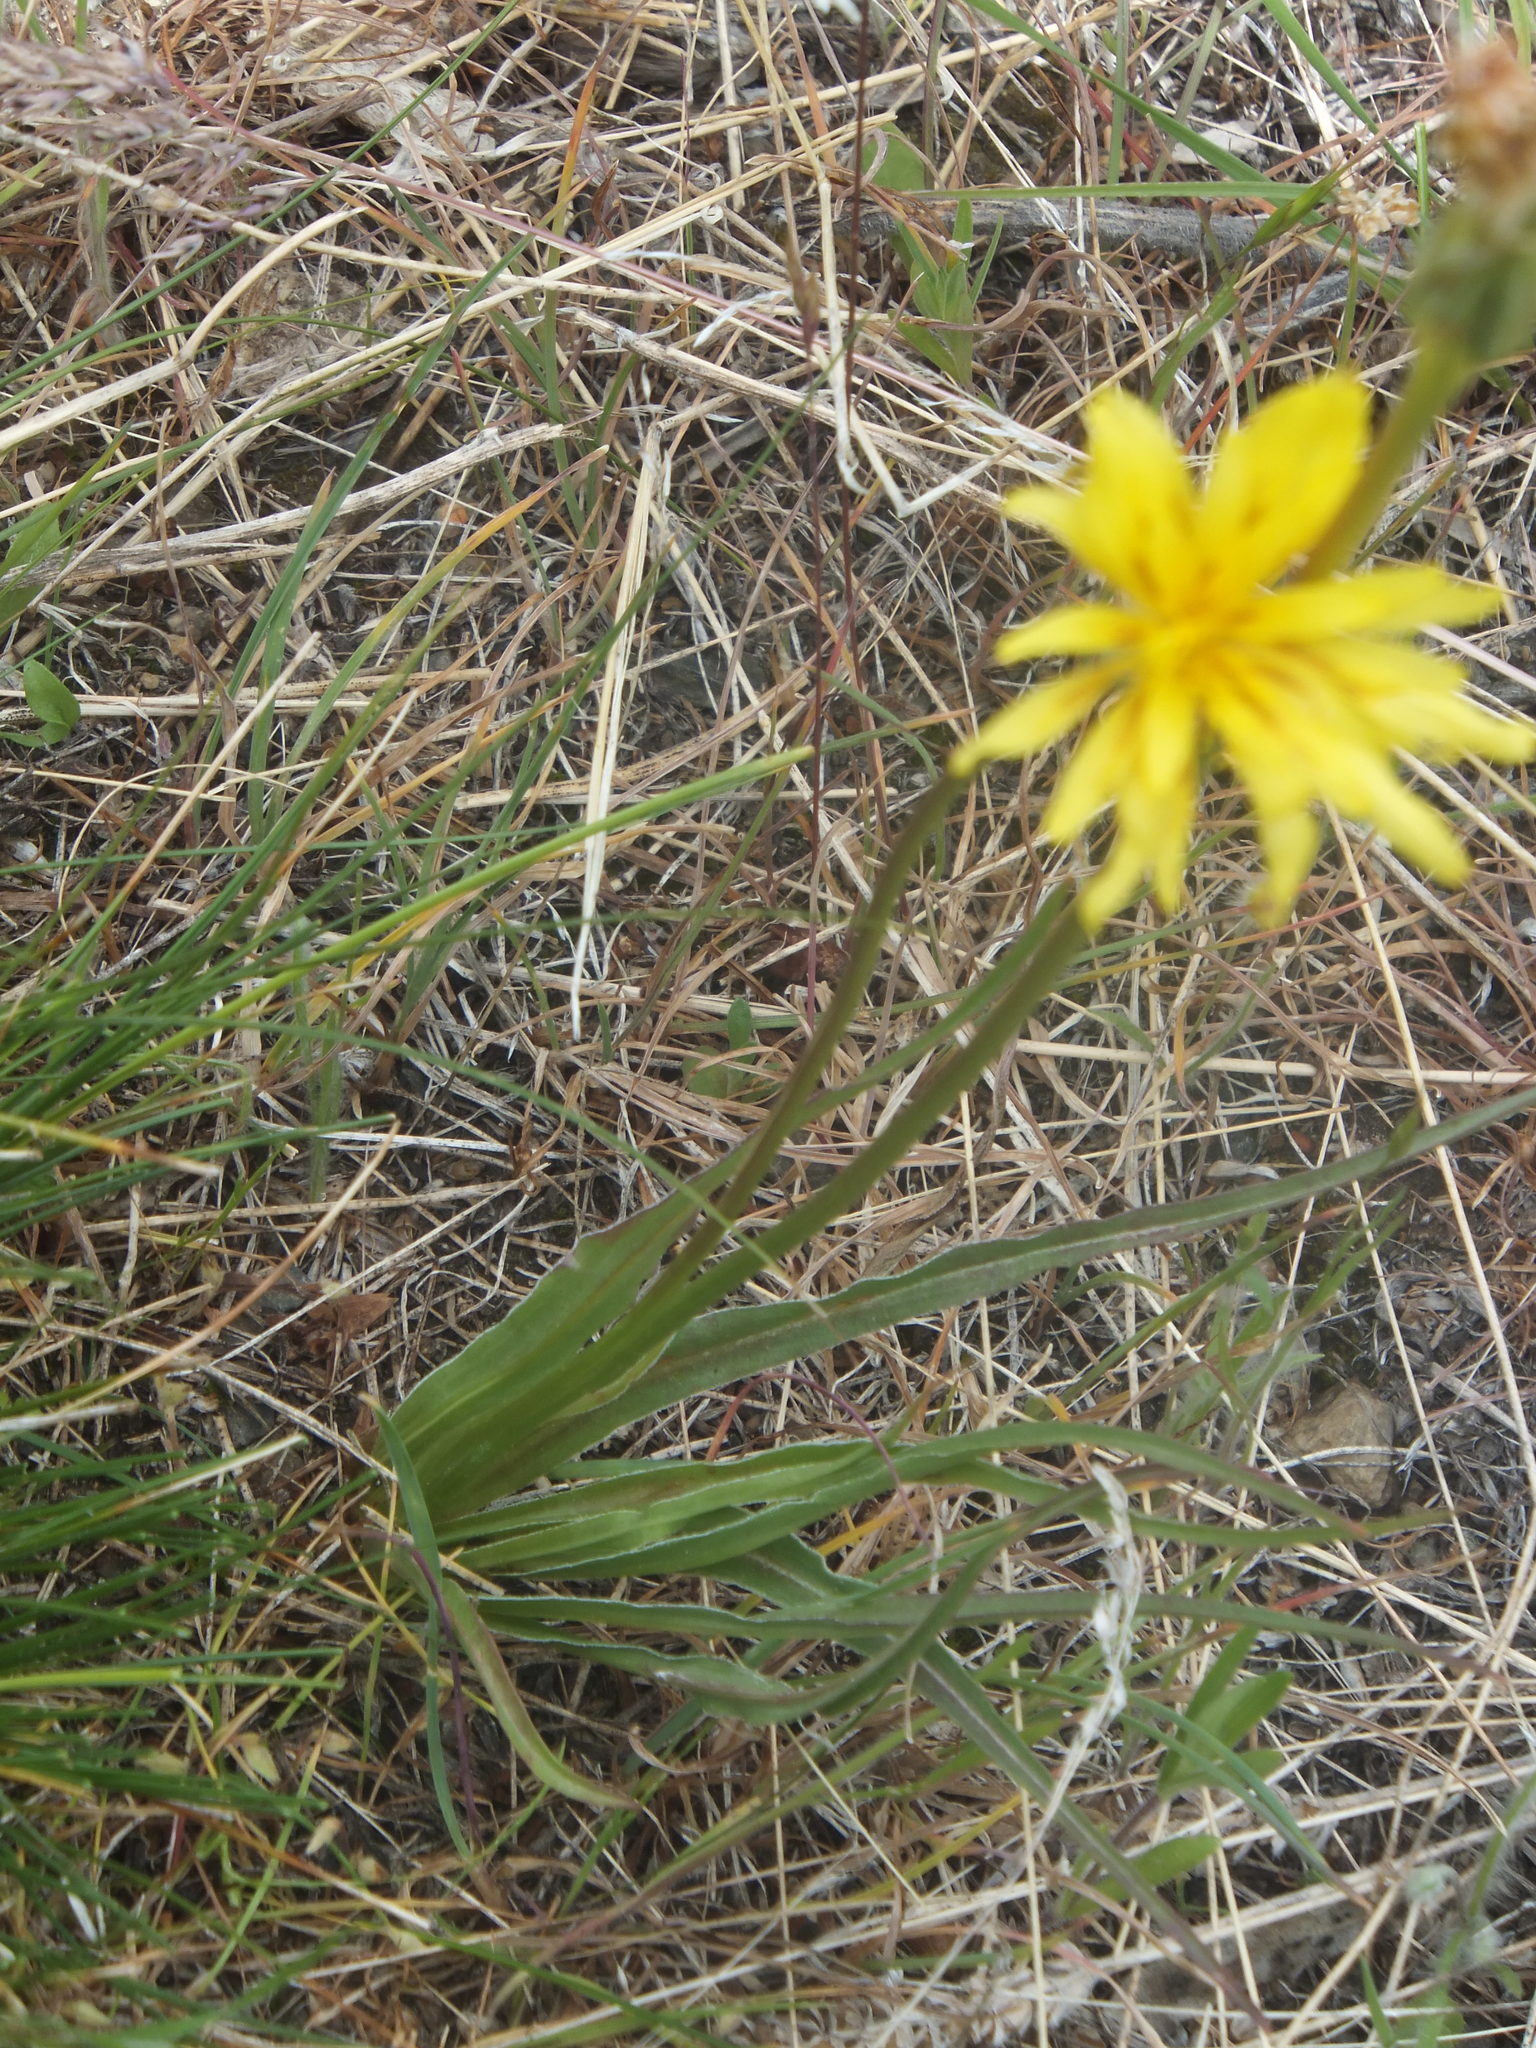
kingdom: Plantae
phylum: Tracheophyta
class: Magnoliopsida
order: Asterales
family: Asteraceae
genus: Microseris
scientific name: Microseris troximoides
